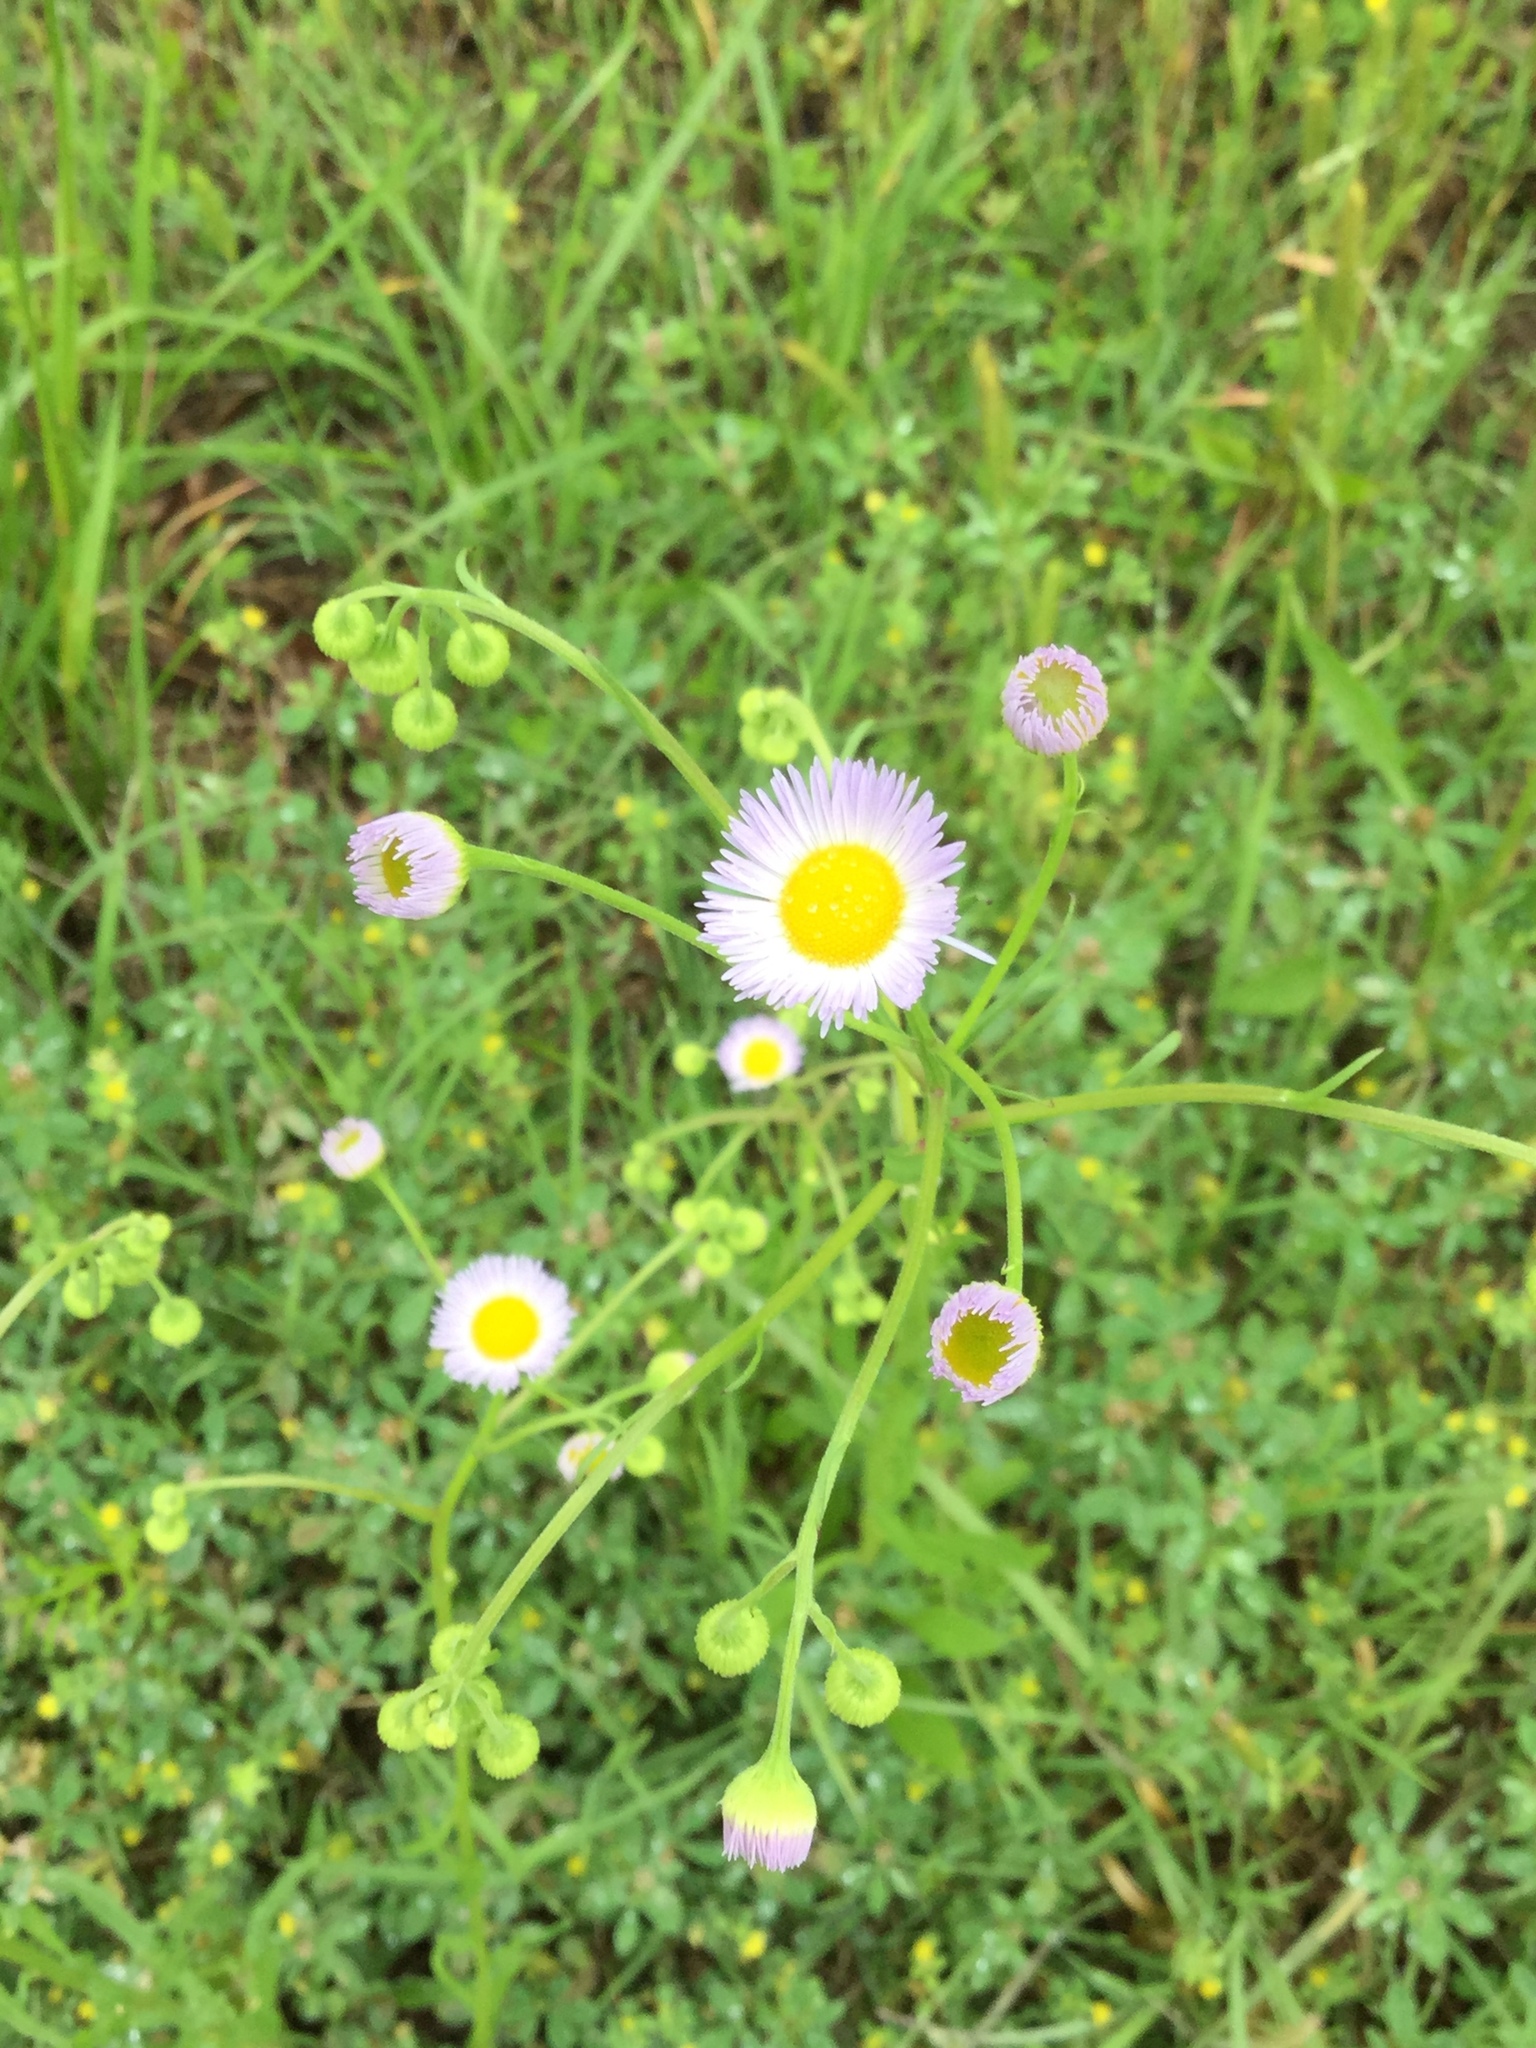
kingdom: Plantae
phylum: Tracheophyta
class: Magnoliopsida
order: Asterales
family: Asteraceae
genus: Erigeron
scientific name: Erigeron strigosus
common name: Common eastern fleabane
